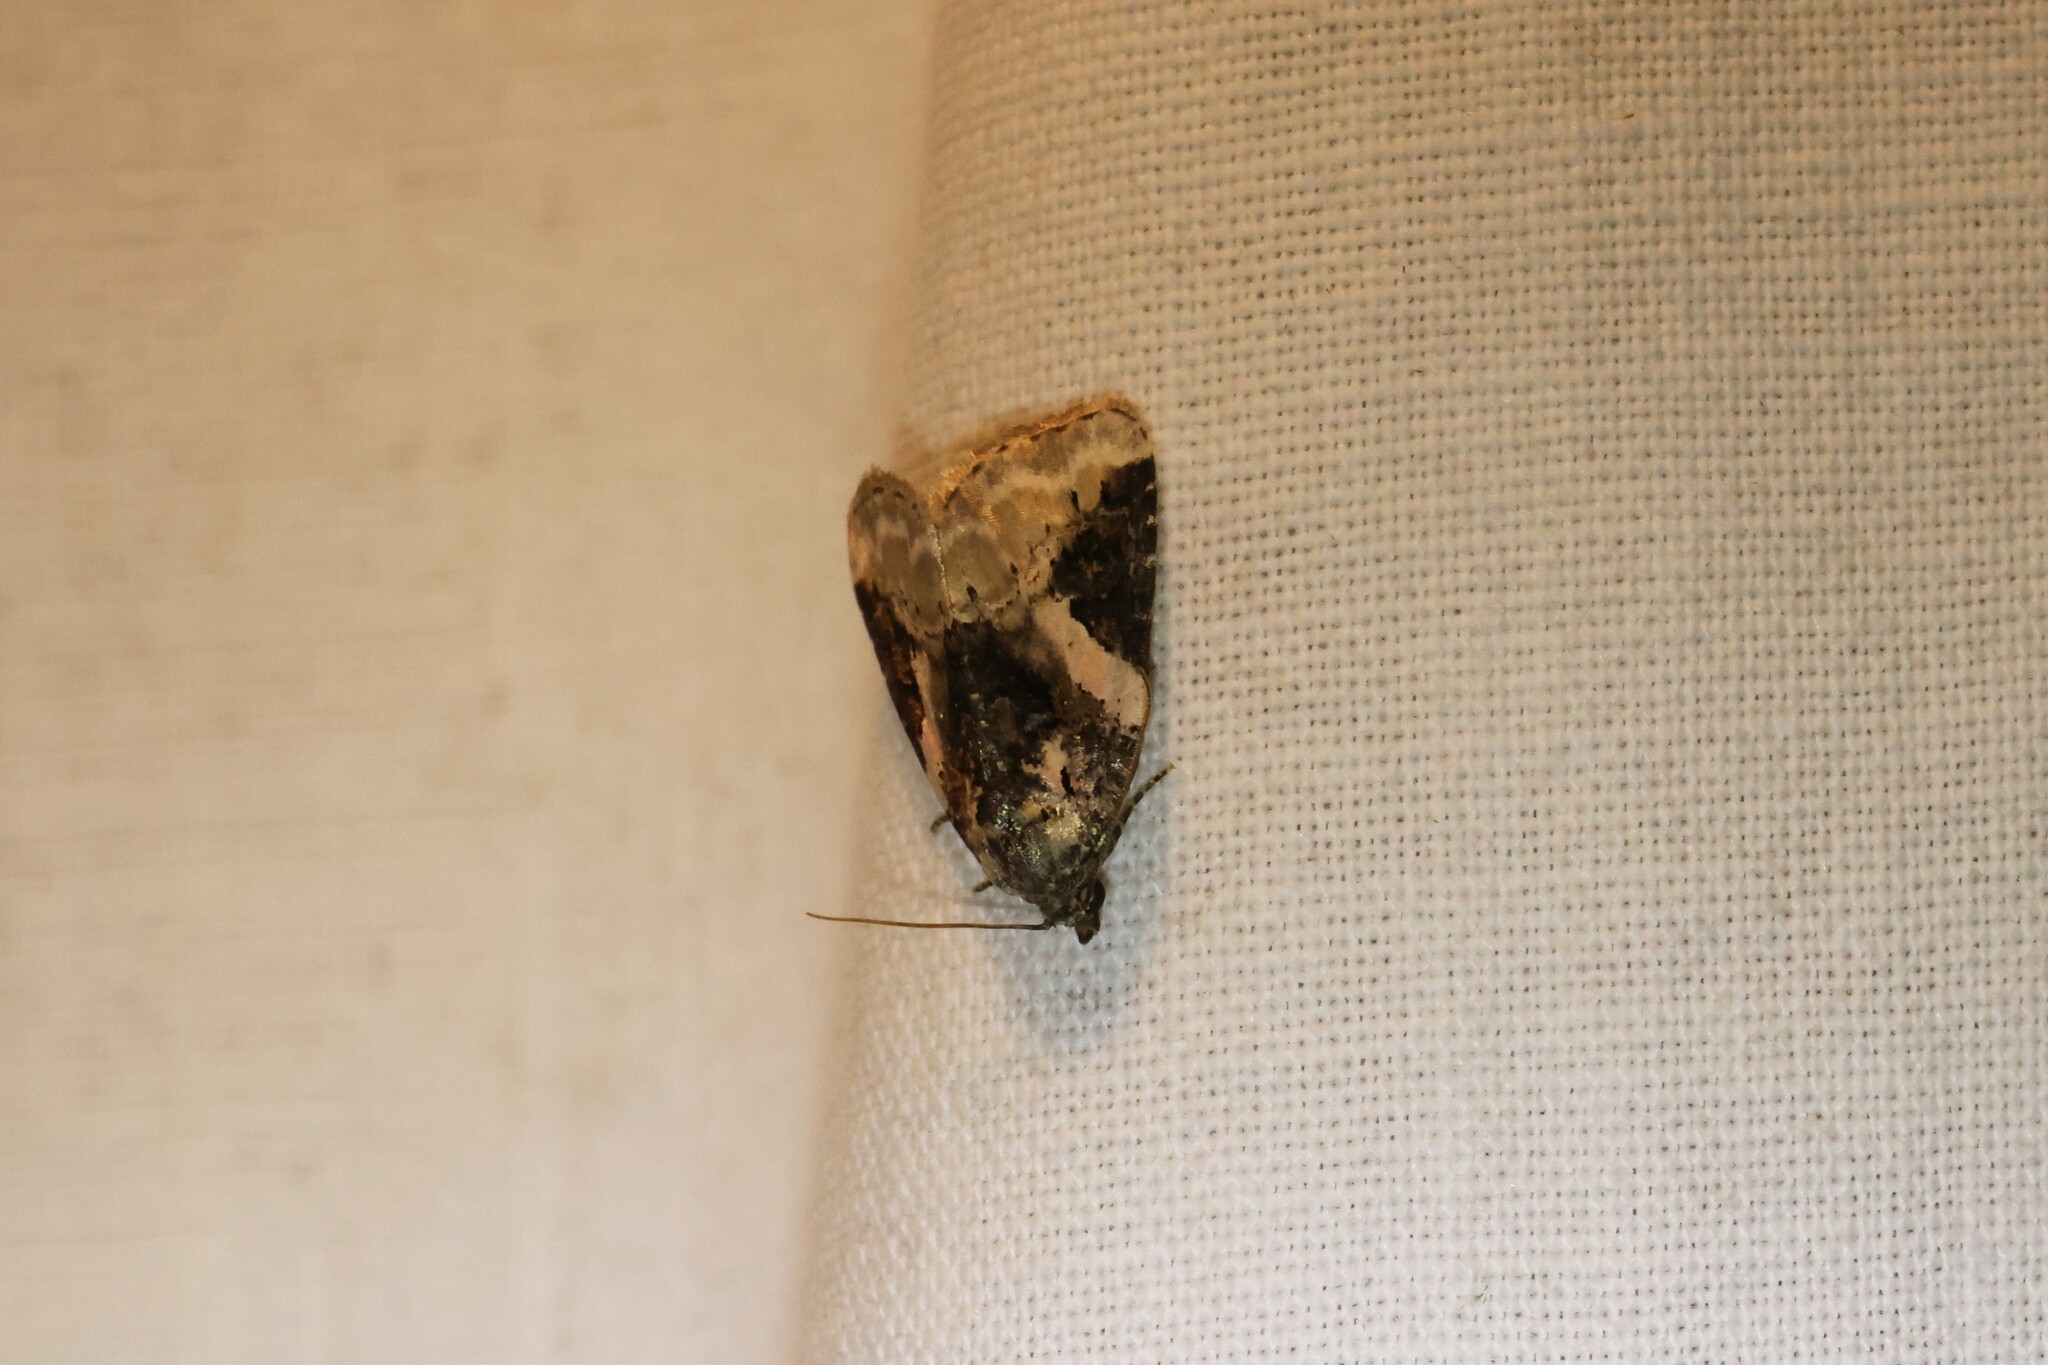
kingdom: Animalia
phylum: Arthropoda
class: Insecta
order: Lepidoptera
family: Noctuidae
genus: Pseudeustrotia
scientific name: Pseudeustrotia carneola
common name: Pink-barred lithacodia moth
